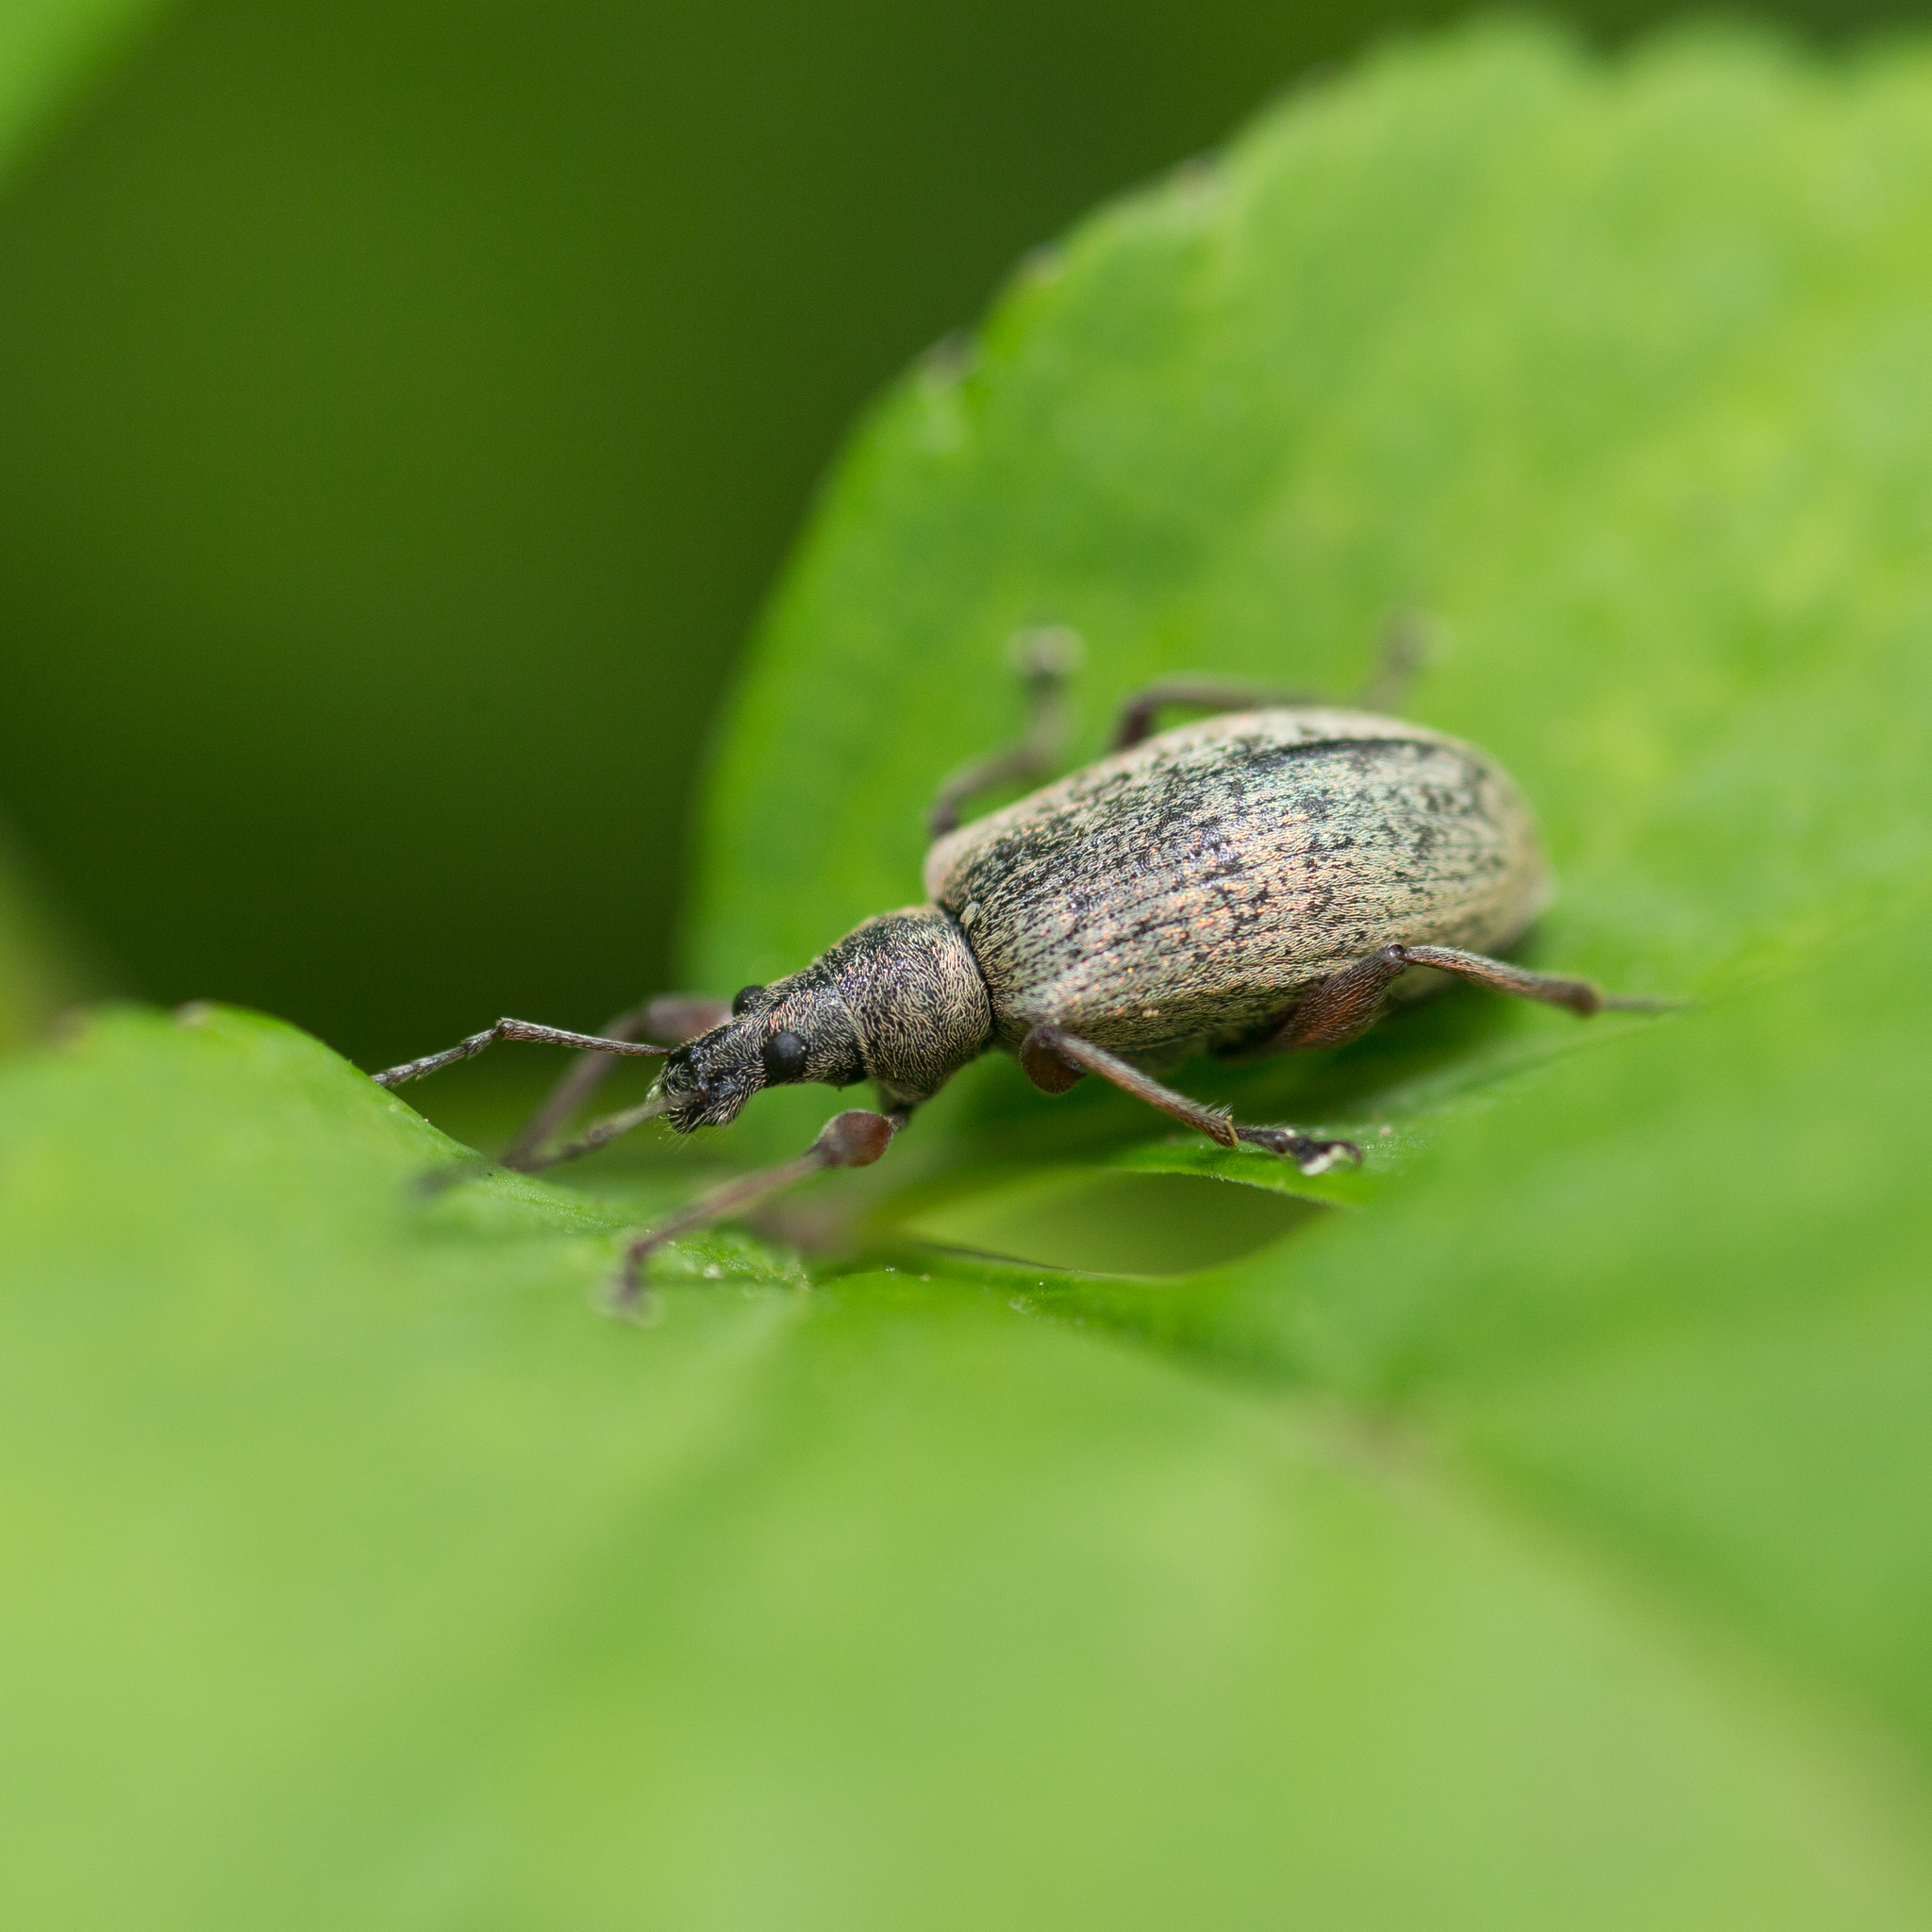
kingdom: Animalia
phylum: Arthropoda
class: Insecta
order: Coleoptera
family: Curculionidae
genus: Phyllobius
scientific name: Phyllobius glaucus
